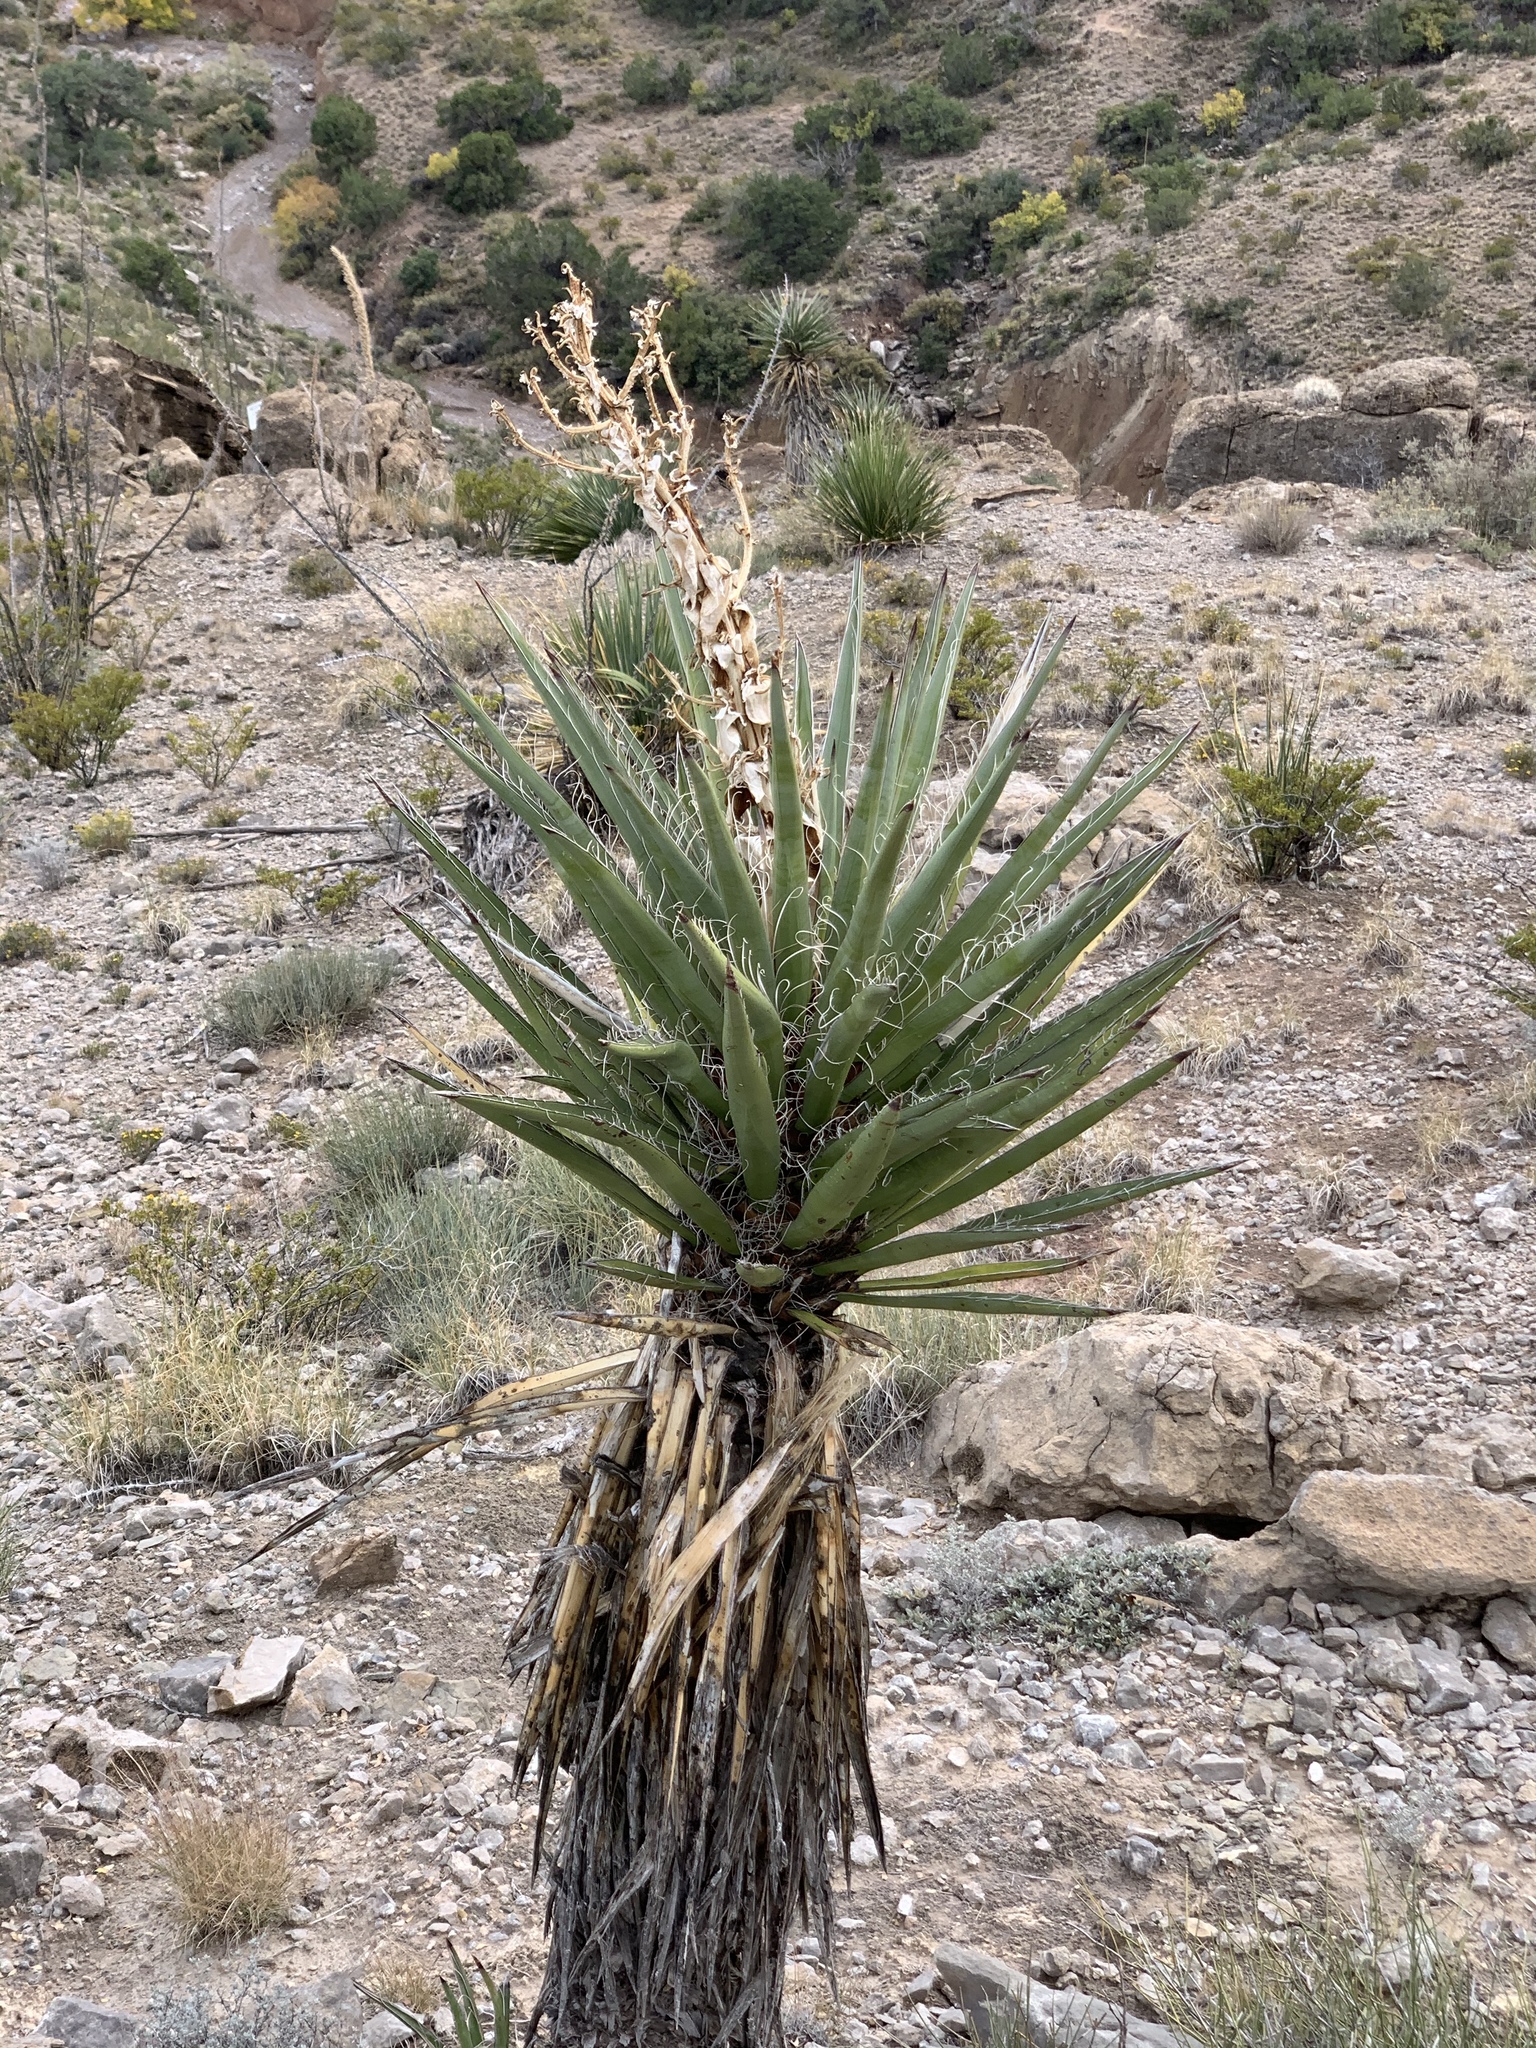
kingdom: Plantae
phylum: Tracheophyta
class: Liliopsida
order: Asparagales
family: Asparagaceae
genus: Yucca
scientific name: Yucca treculiana
